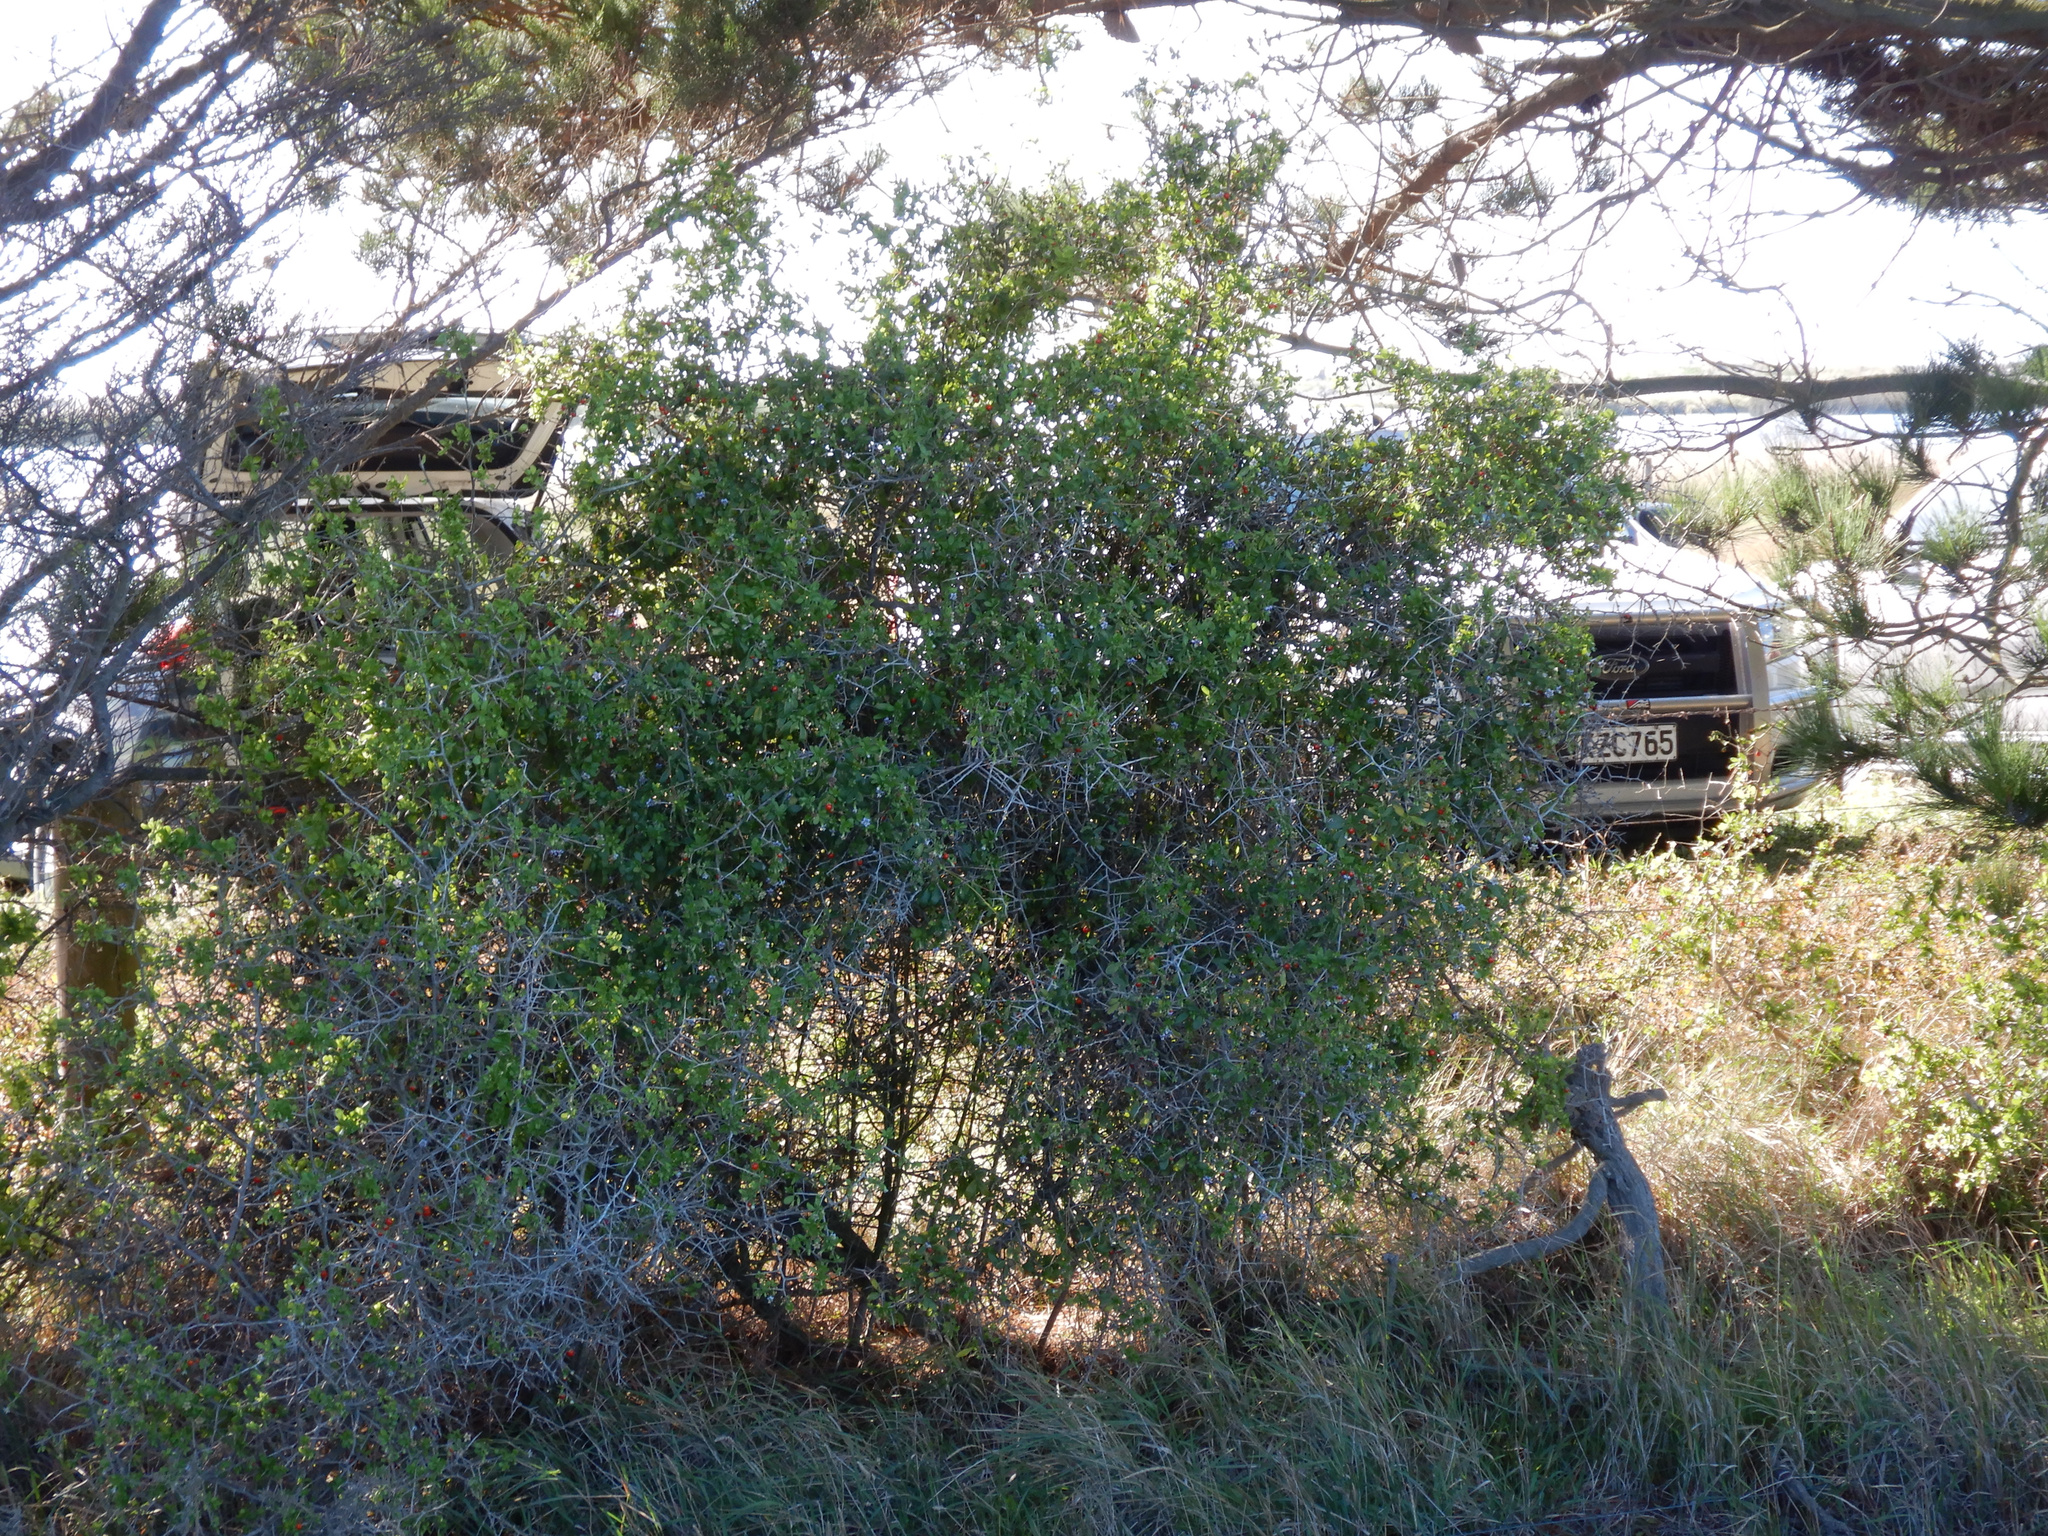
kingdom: Plantae
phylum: Tracheophyta
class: Magnoliopsida
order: Solanales
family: Solanaceae
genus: Lycium
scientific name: Lycium ferocissimum
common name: African boxthorn
